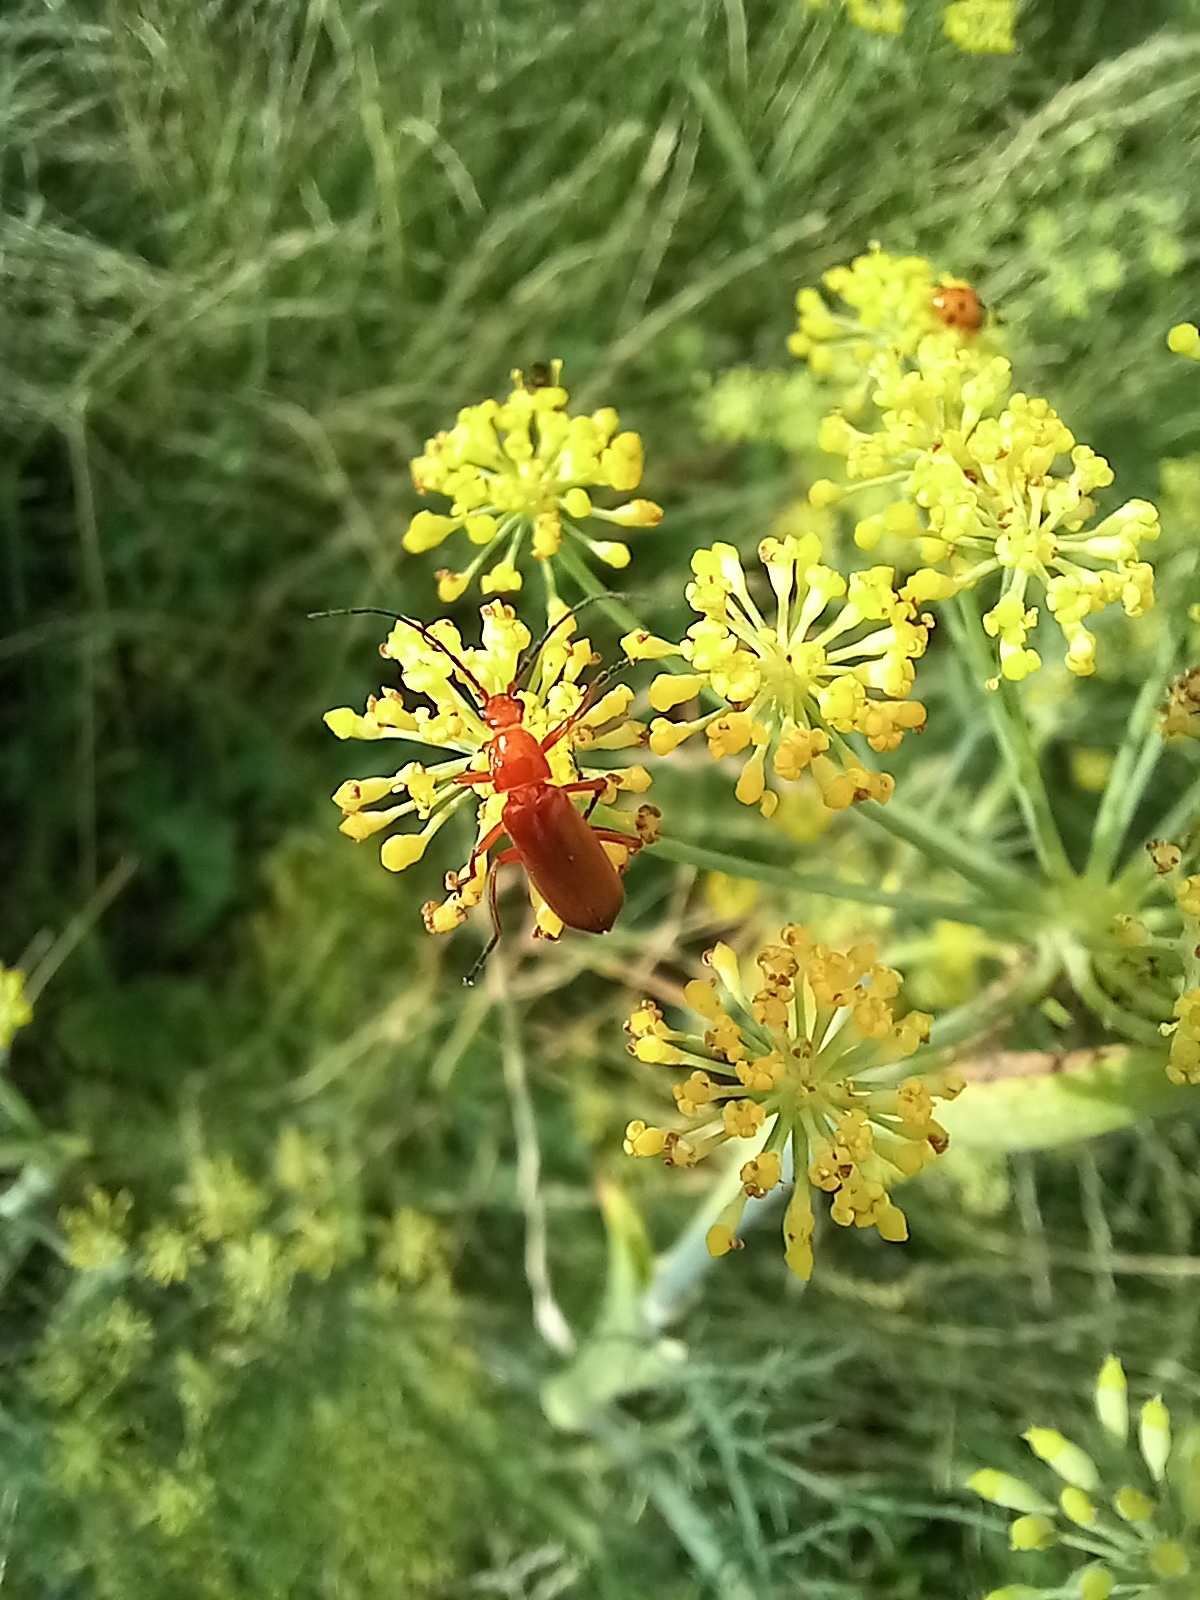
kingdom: Animalia
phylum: Arthropoda
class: Insecta
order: Coleoptera
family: Cantharidae
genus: Rhagonycha
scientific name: Rhagonycha fulva
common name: Common red soldier beetle
